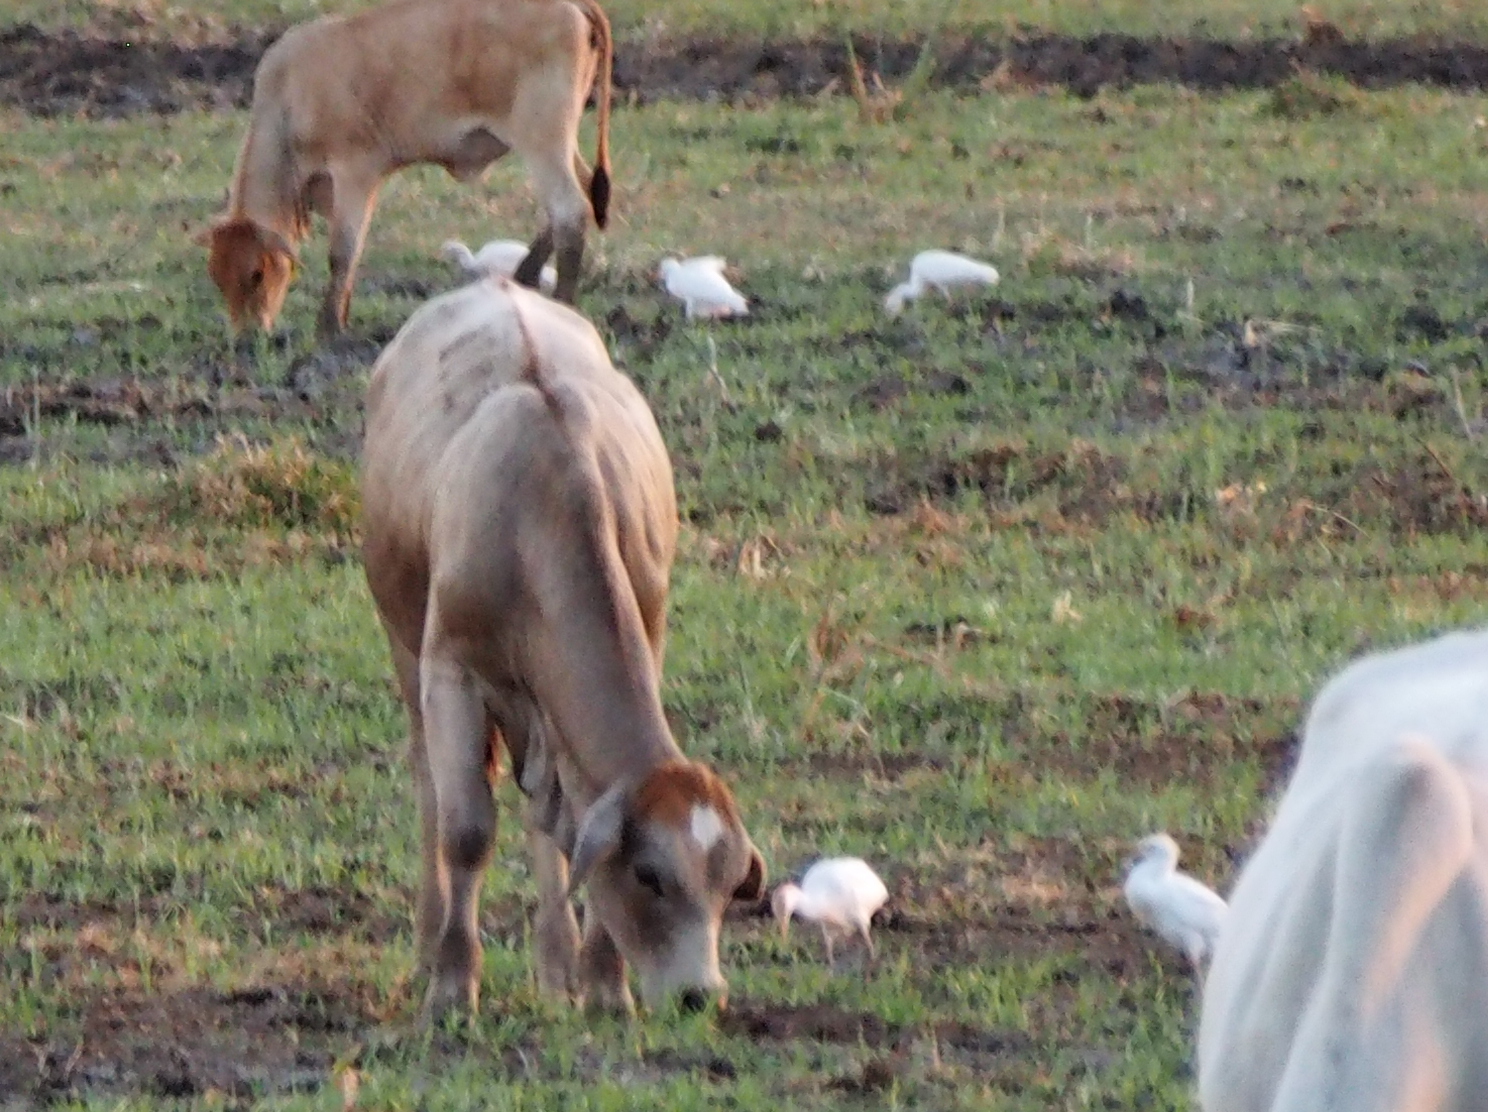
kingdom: Animalia
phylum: Chordata
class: Aves
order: Pelecaniformes
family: Ardeidae
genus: Bubulcus
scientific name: Bubulcus ibis
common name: Cattle egret
